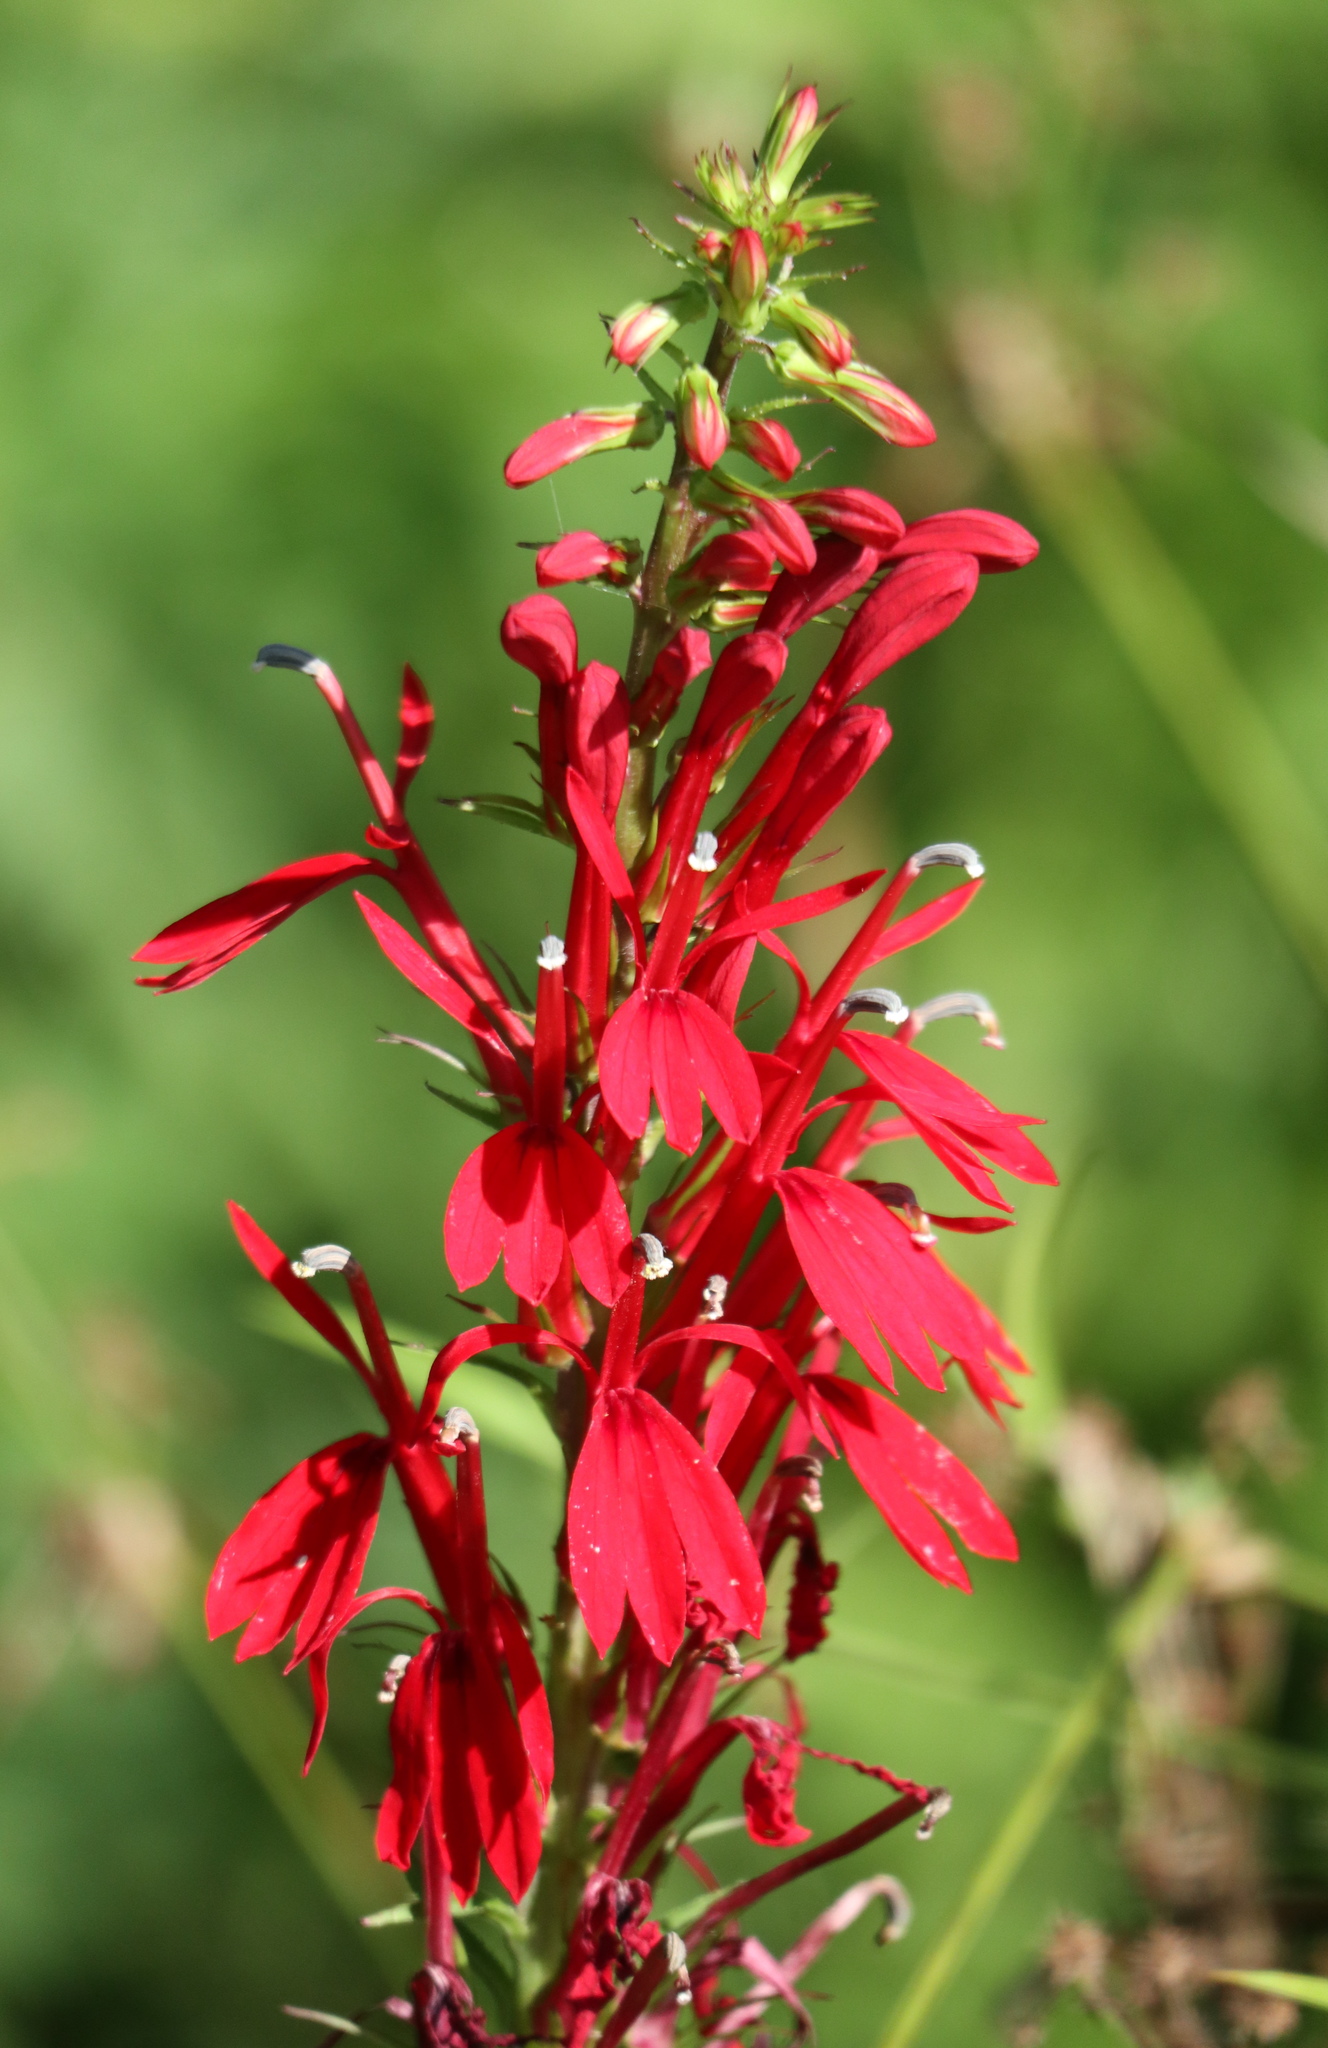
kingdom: Plantae
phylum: Tracheophyta
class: Magnoliopsida
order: Asterales
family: Campanulaceae
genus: Lobelia
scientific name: Lobelia cardinalis
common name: Cardinal flower
